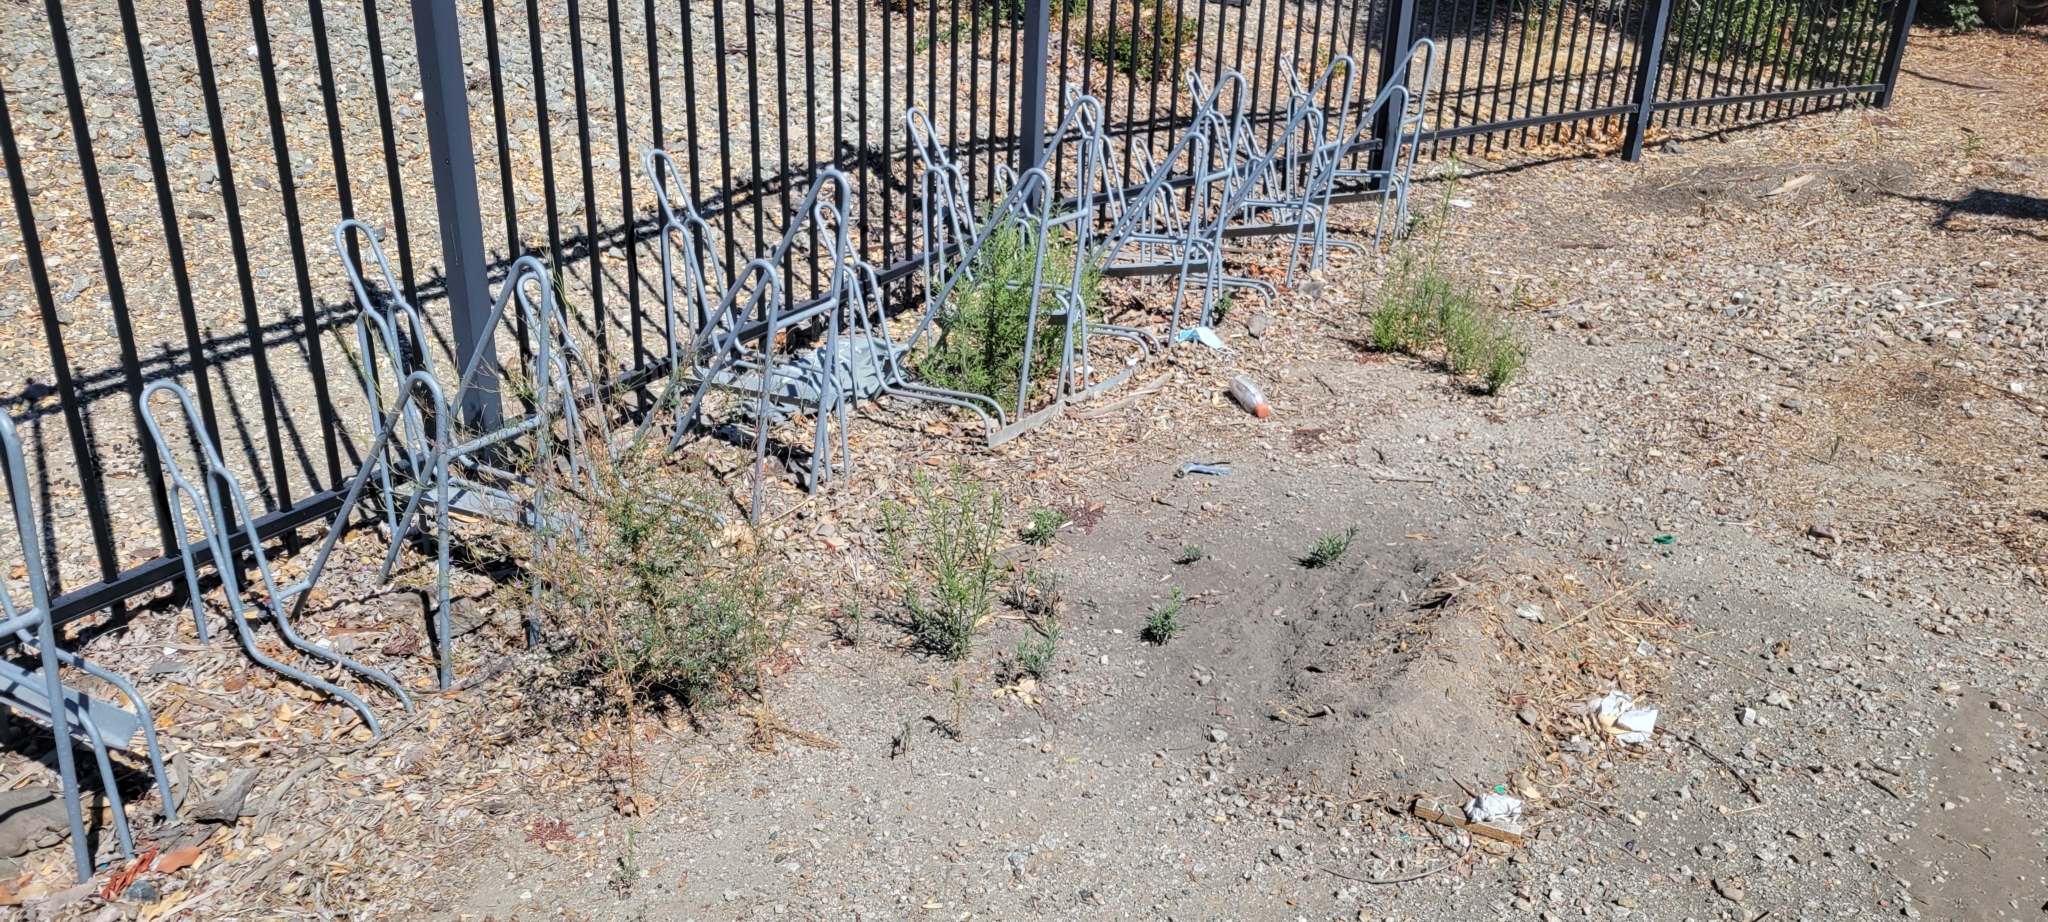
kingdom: Plantae
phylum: Tracheophyta
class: Magnoliopsida
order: Asterales
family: Asteraceae
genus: Dittrichia
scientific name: Dittrichia graveolens
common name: Stinking fleabane
